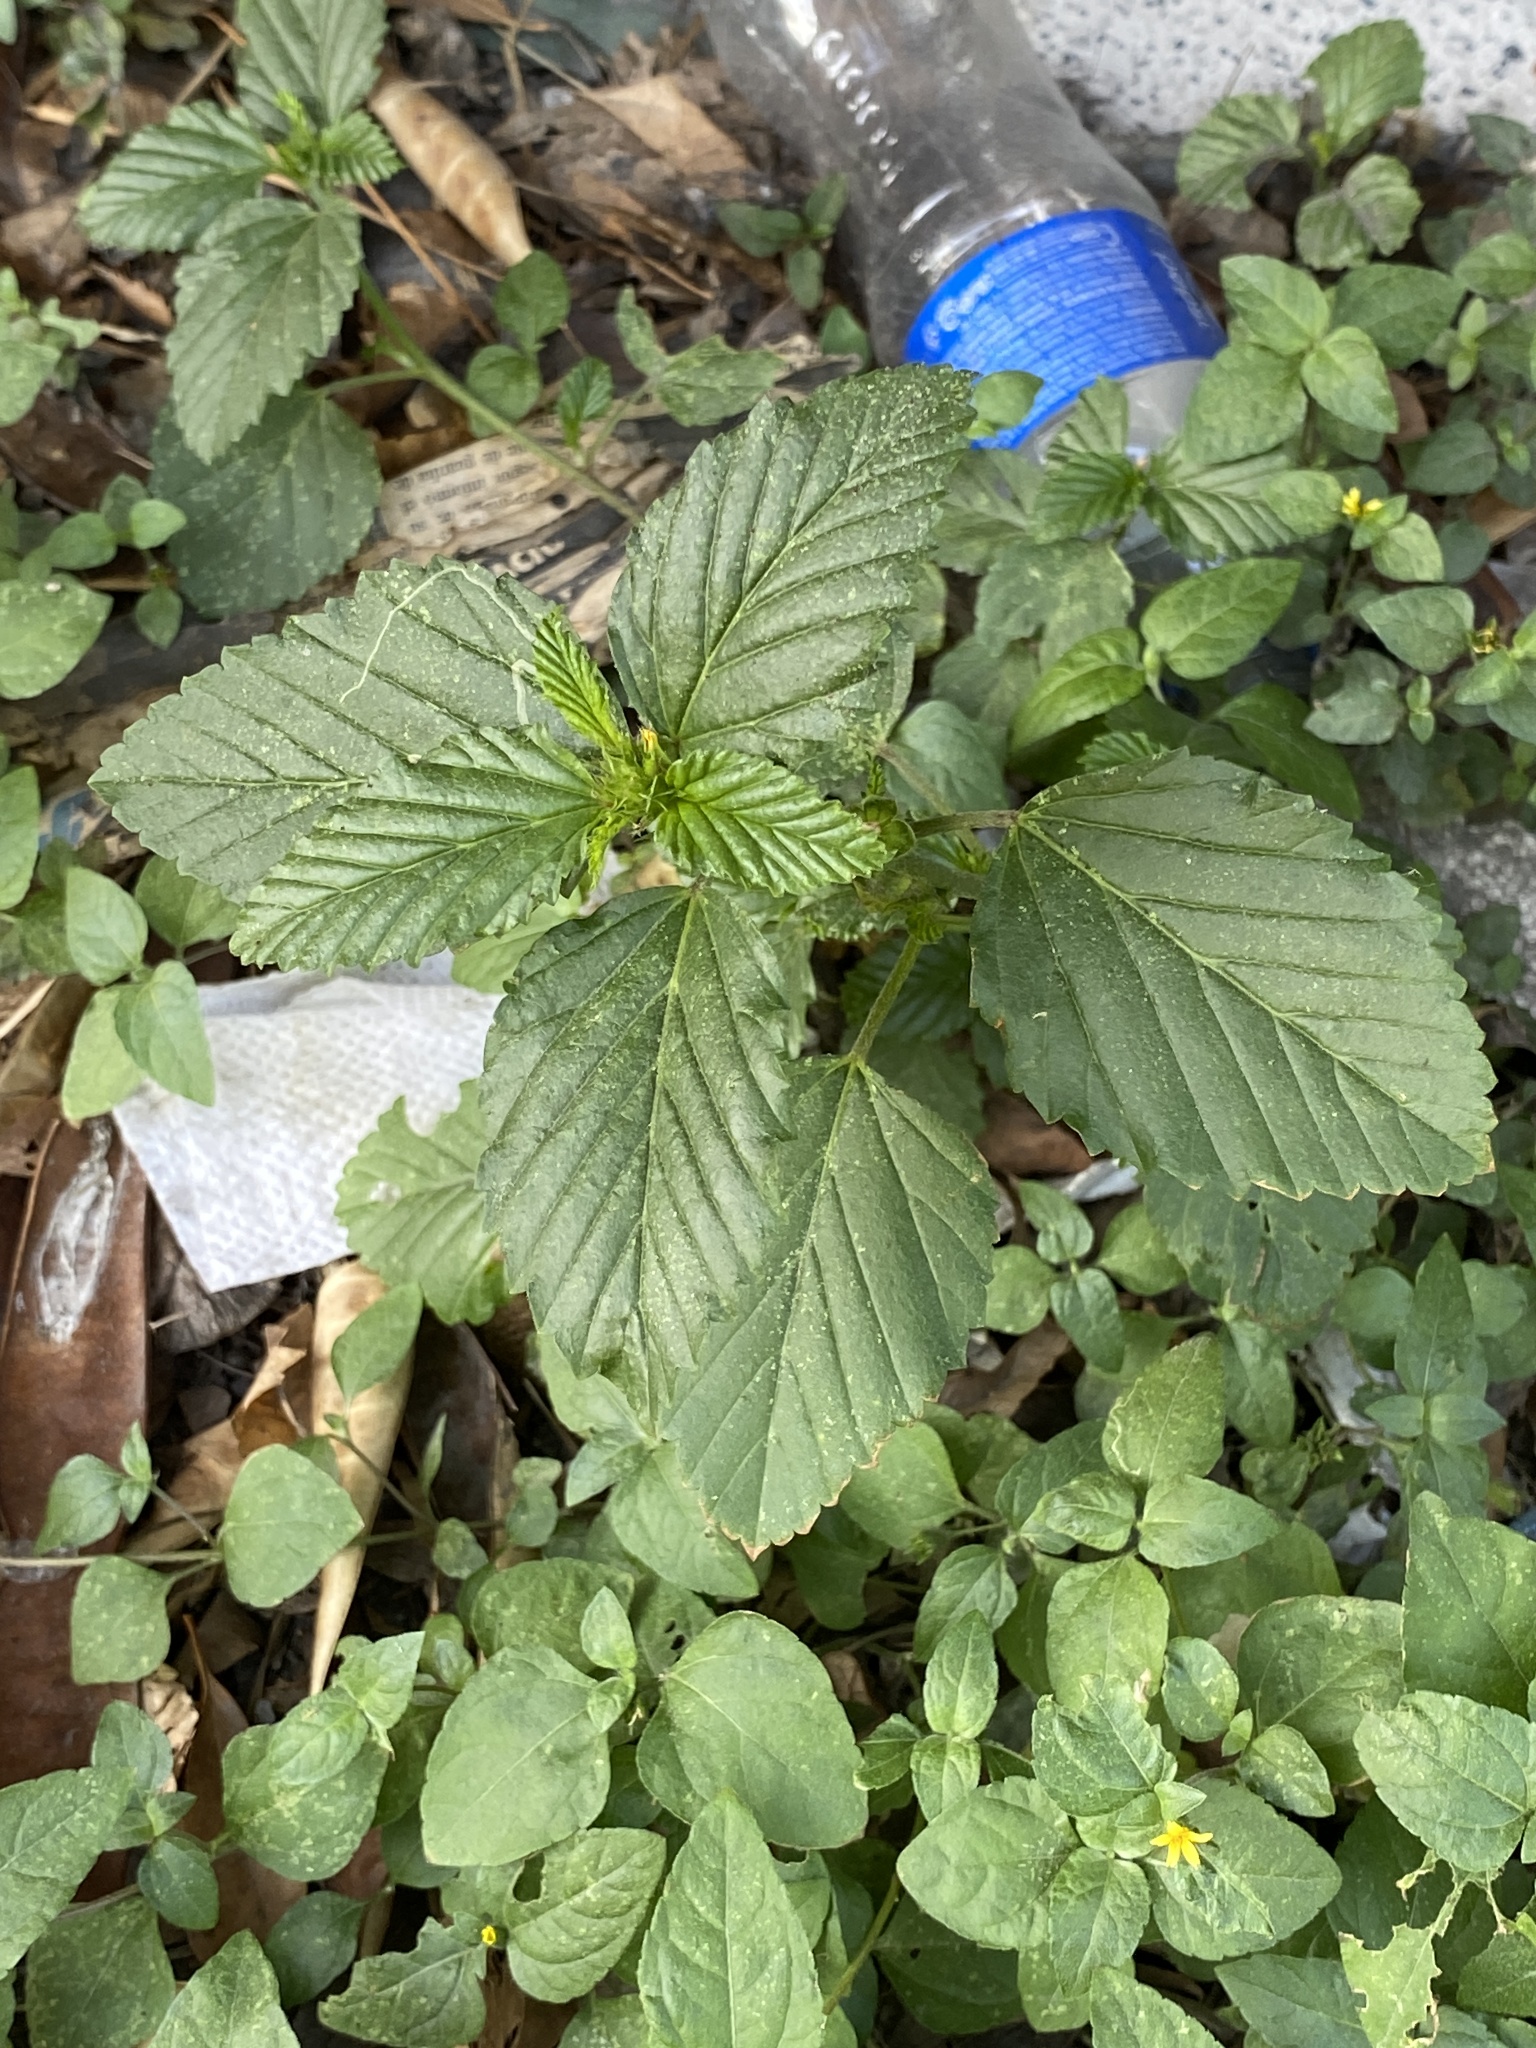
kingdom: Plantae
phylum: Tracheophyta
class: Magnoliopsida
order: Malvales
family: Malvaceae
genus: Malvastrum
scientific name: Malvastrum coromandelianum
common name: Threelobe false mallow
